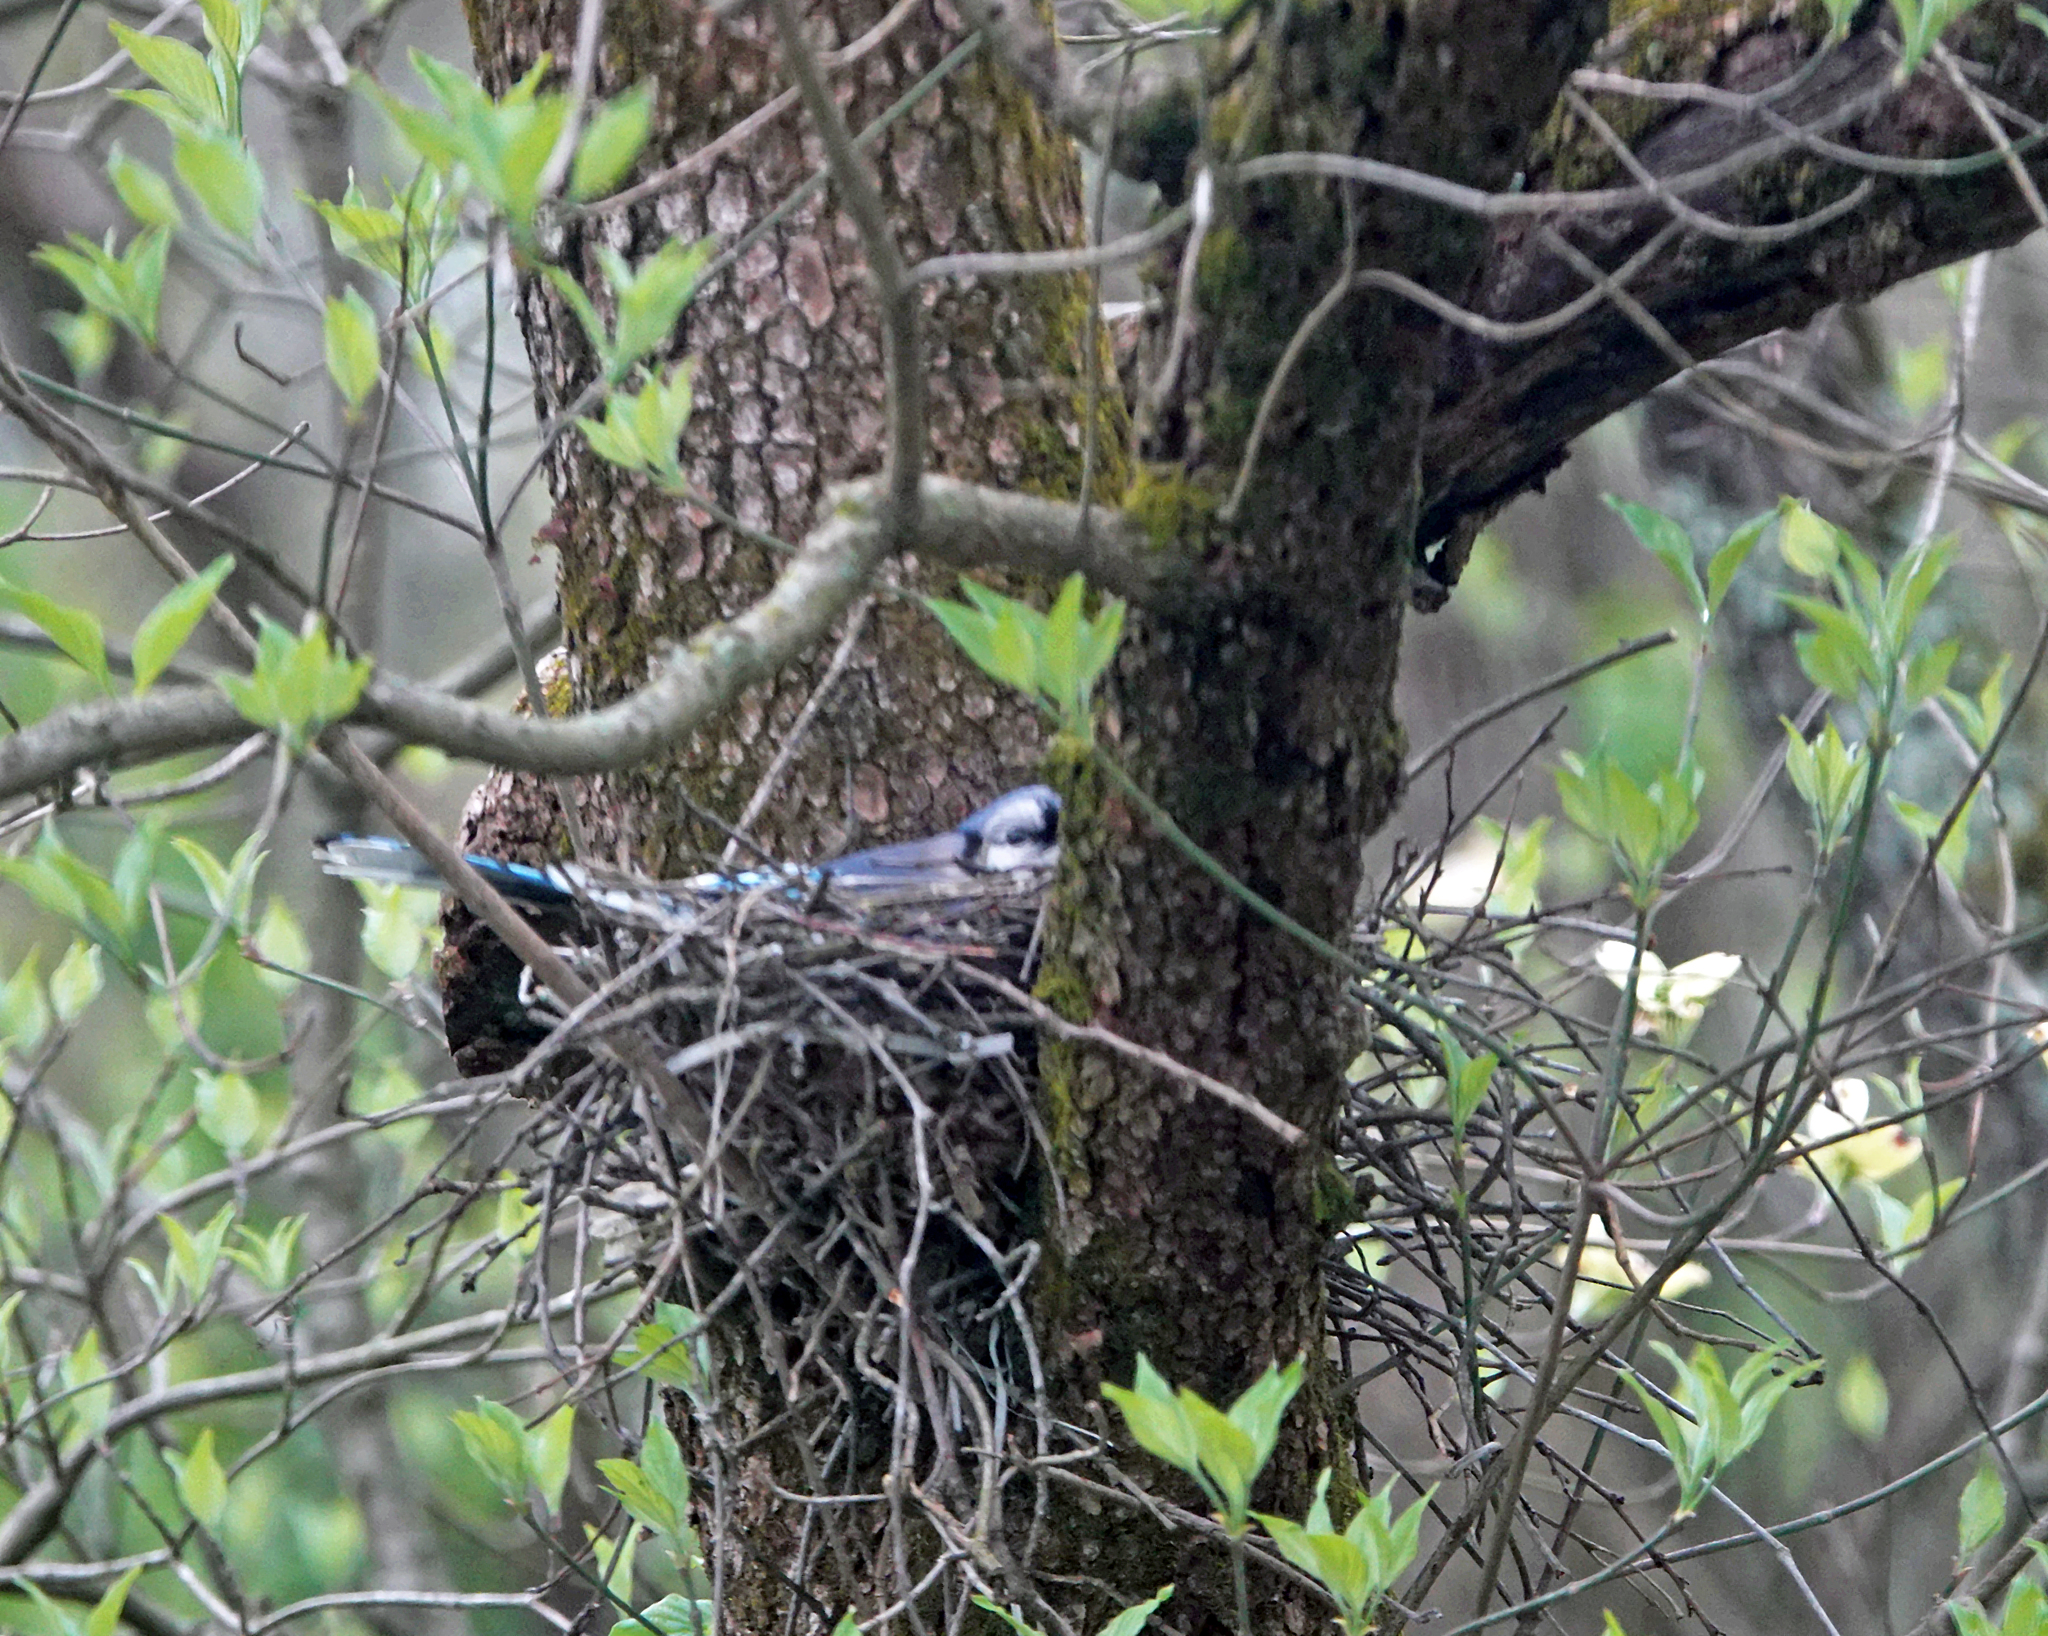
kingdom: Animalia
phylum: Chordata
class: Aves
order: Passeriformes
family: Corvidae
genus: Cyanocitta
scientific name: Cyanocitta cristata
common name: Blue jay
